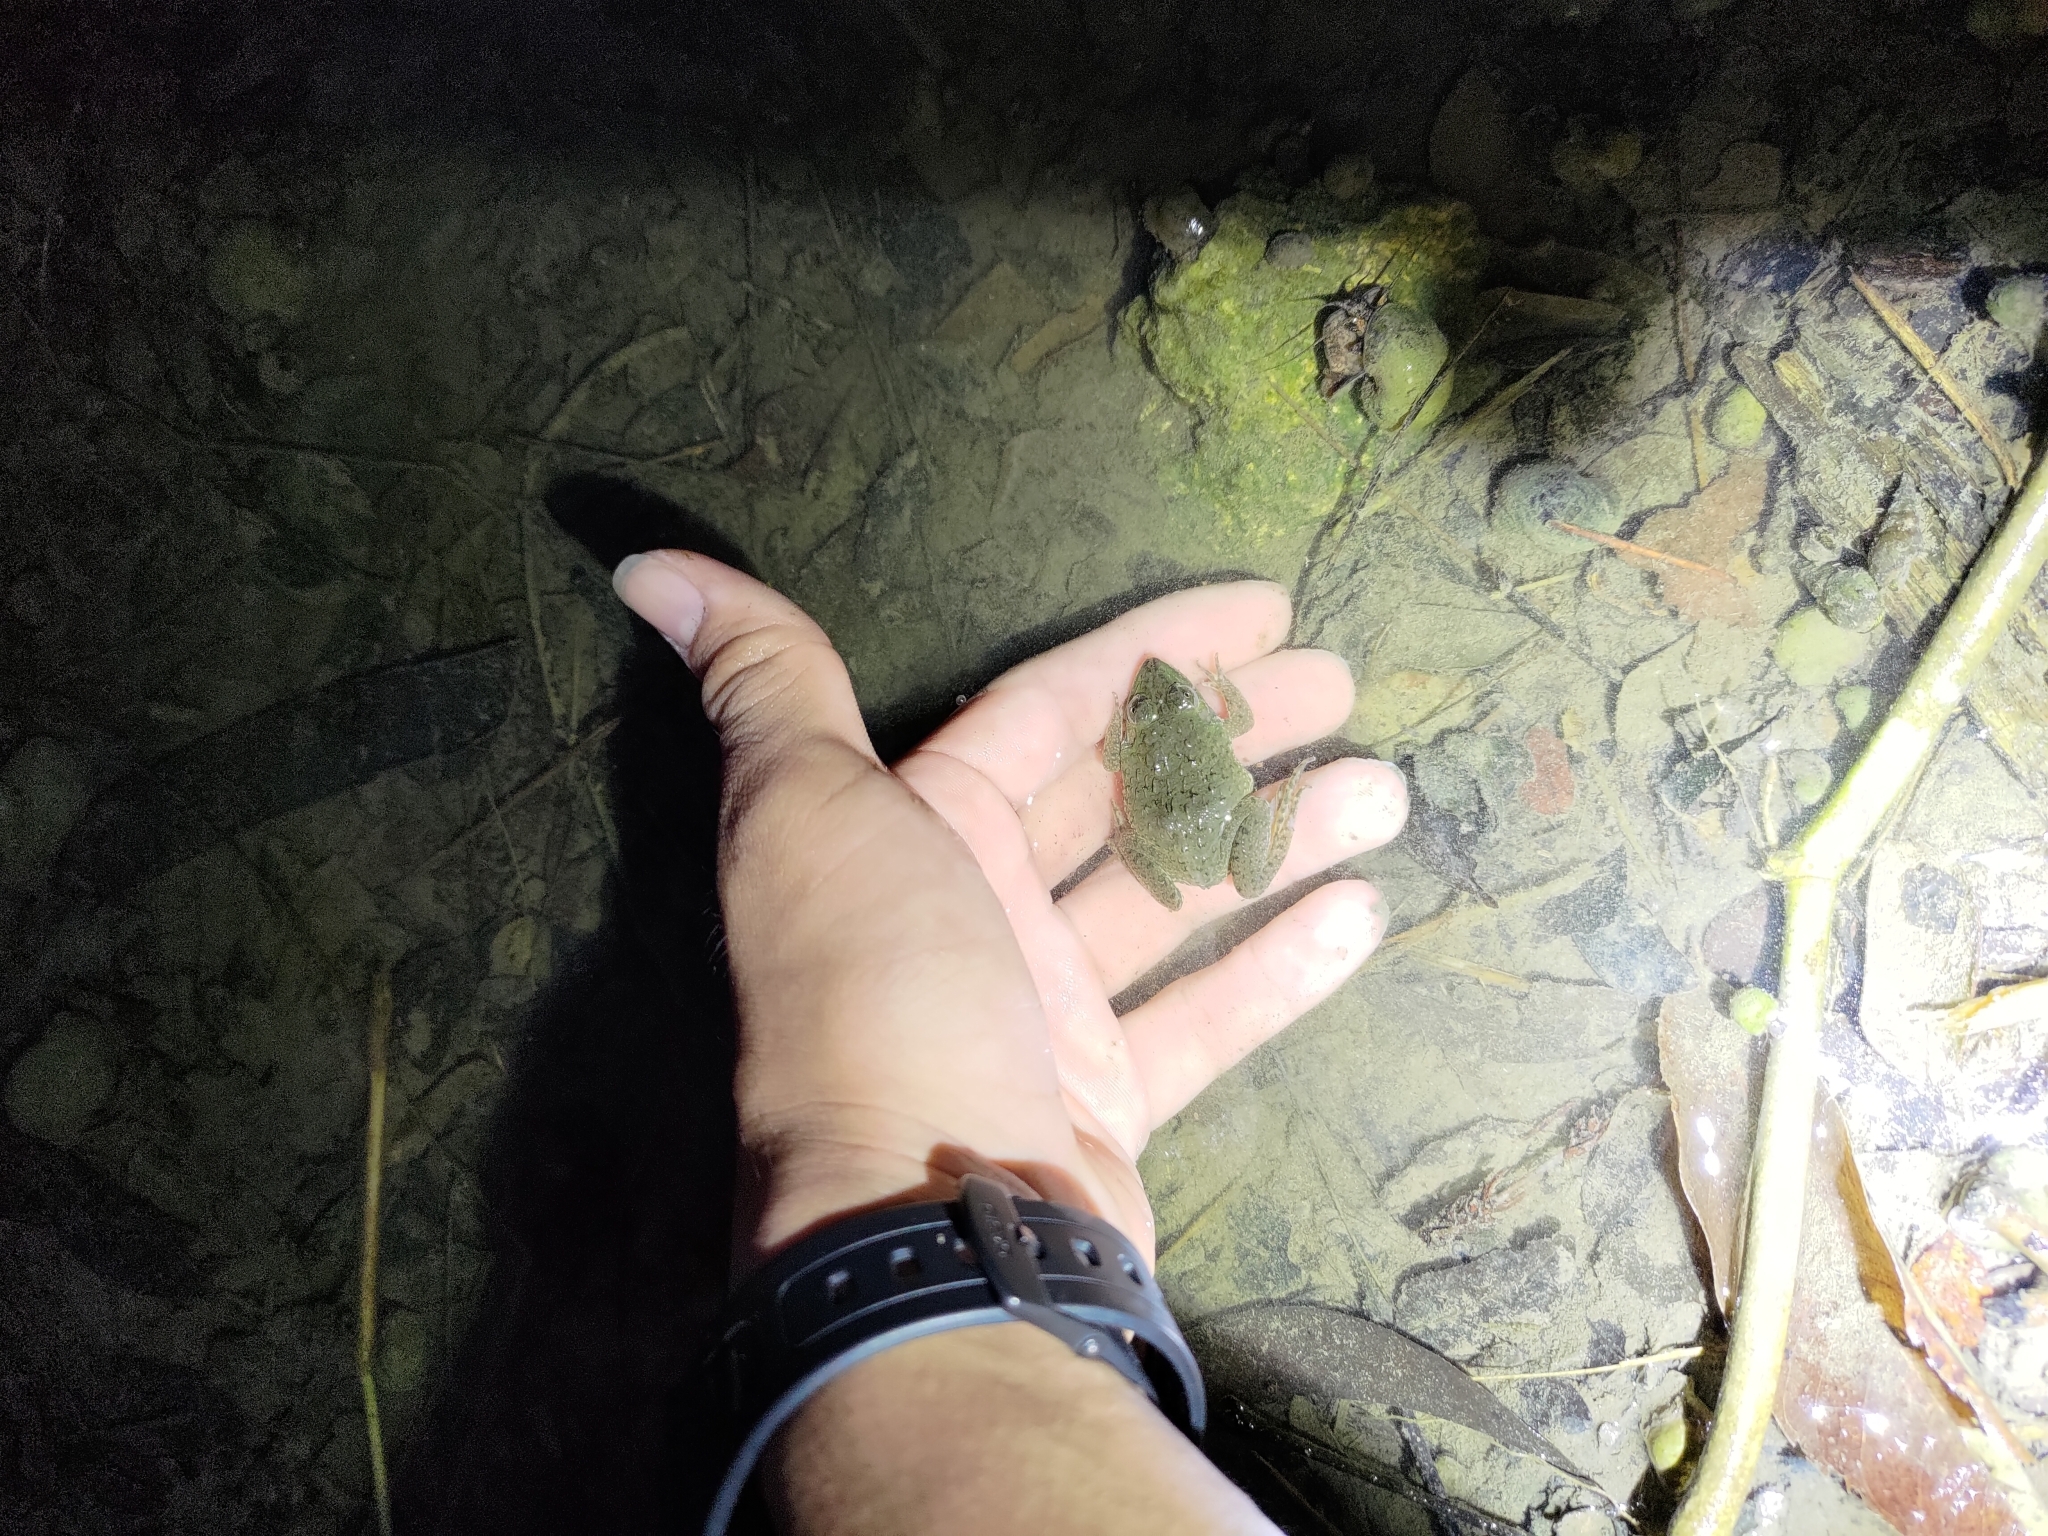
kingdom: Animalia
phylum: Chordata
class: Amphibia
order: Anura
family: Dicroglossidae
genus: Hoplobatrachus
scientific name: Hoplobatrachus rugulosus
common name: Chinese edible frog
